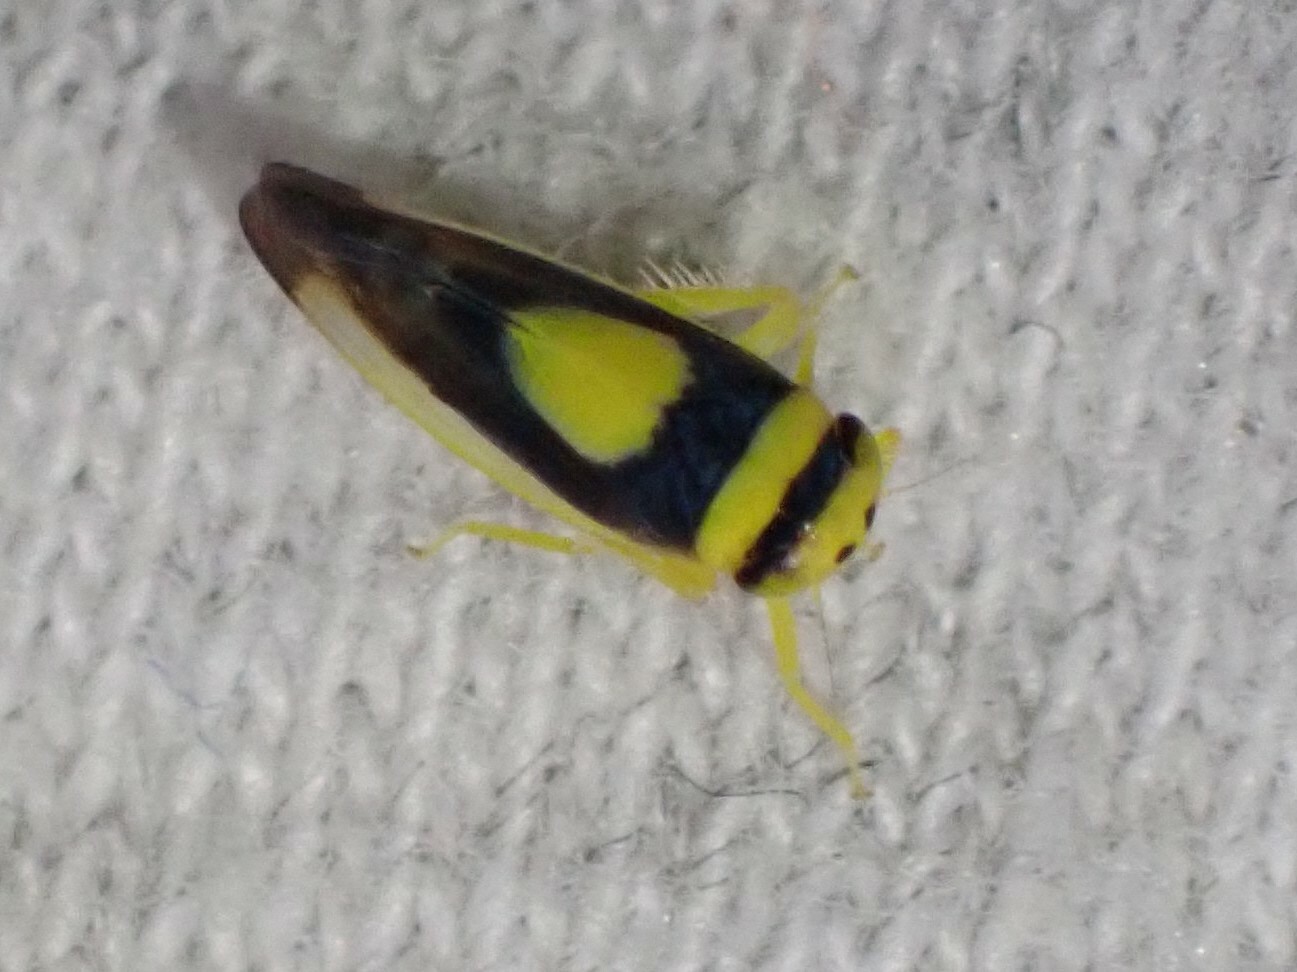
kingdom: Animalia
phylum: Arthropoda
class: Insecta
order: Hemiptera
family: Cicadellidae
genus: Colladonus
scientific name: Colladonus clitellarius
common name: The saddleback leafhopper
